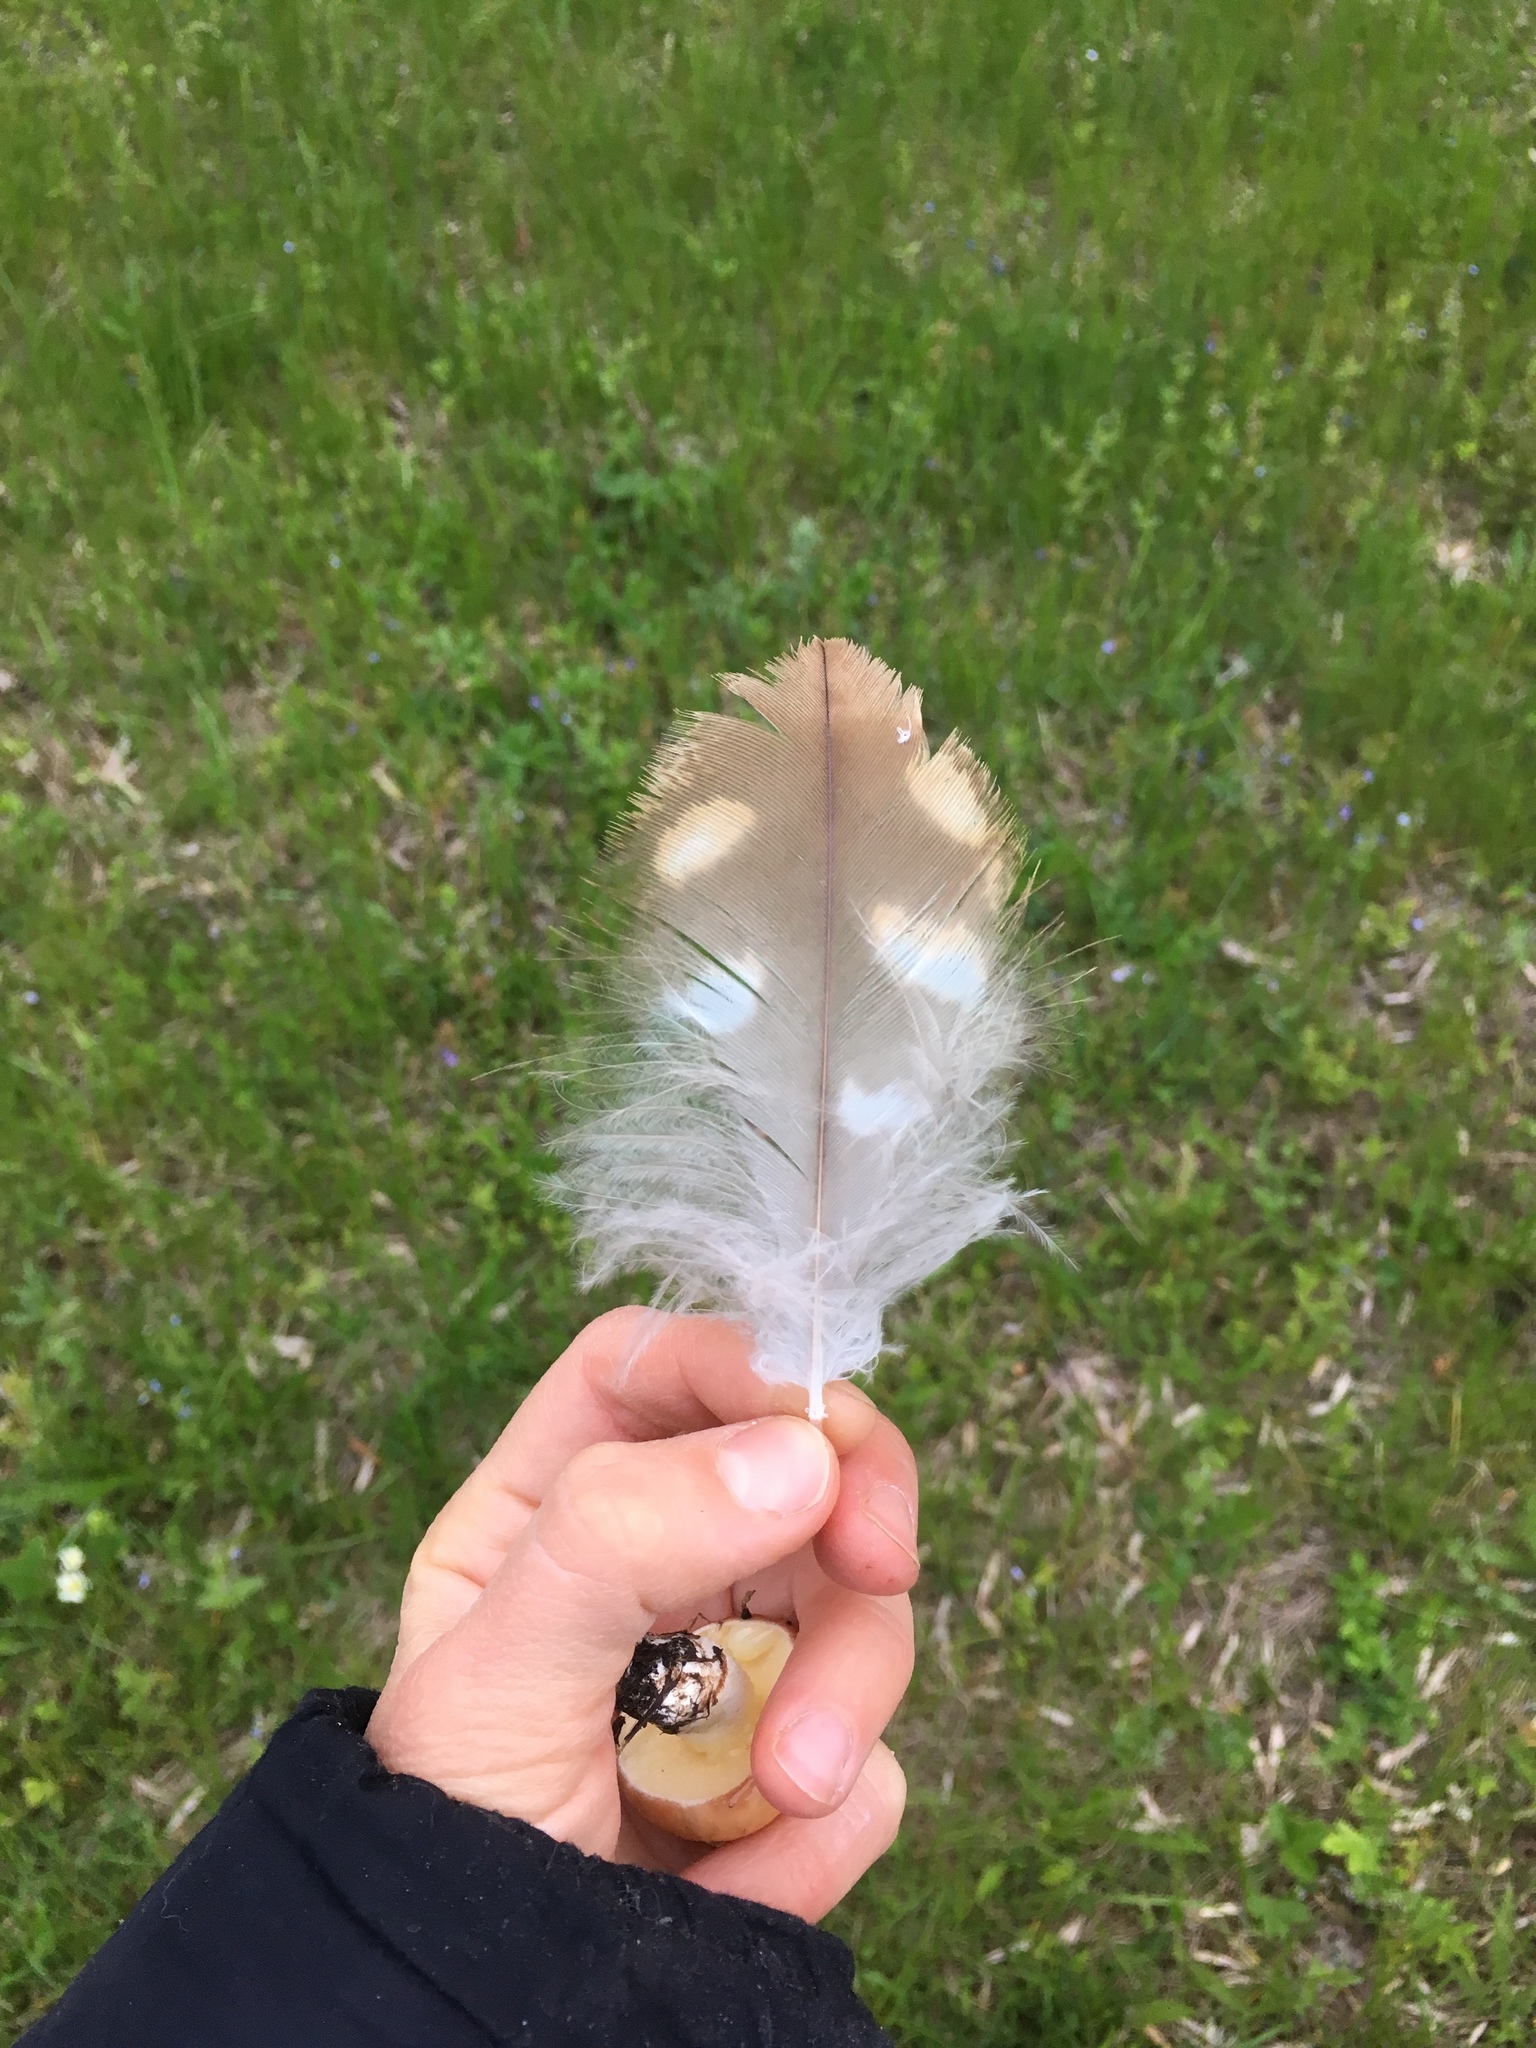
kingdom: Animalia
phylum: Chordata
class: Aves
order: Accipitriformes
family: Accipitridae
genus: Buteo
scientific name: Buteo buteo
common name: Common buzzard
